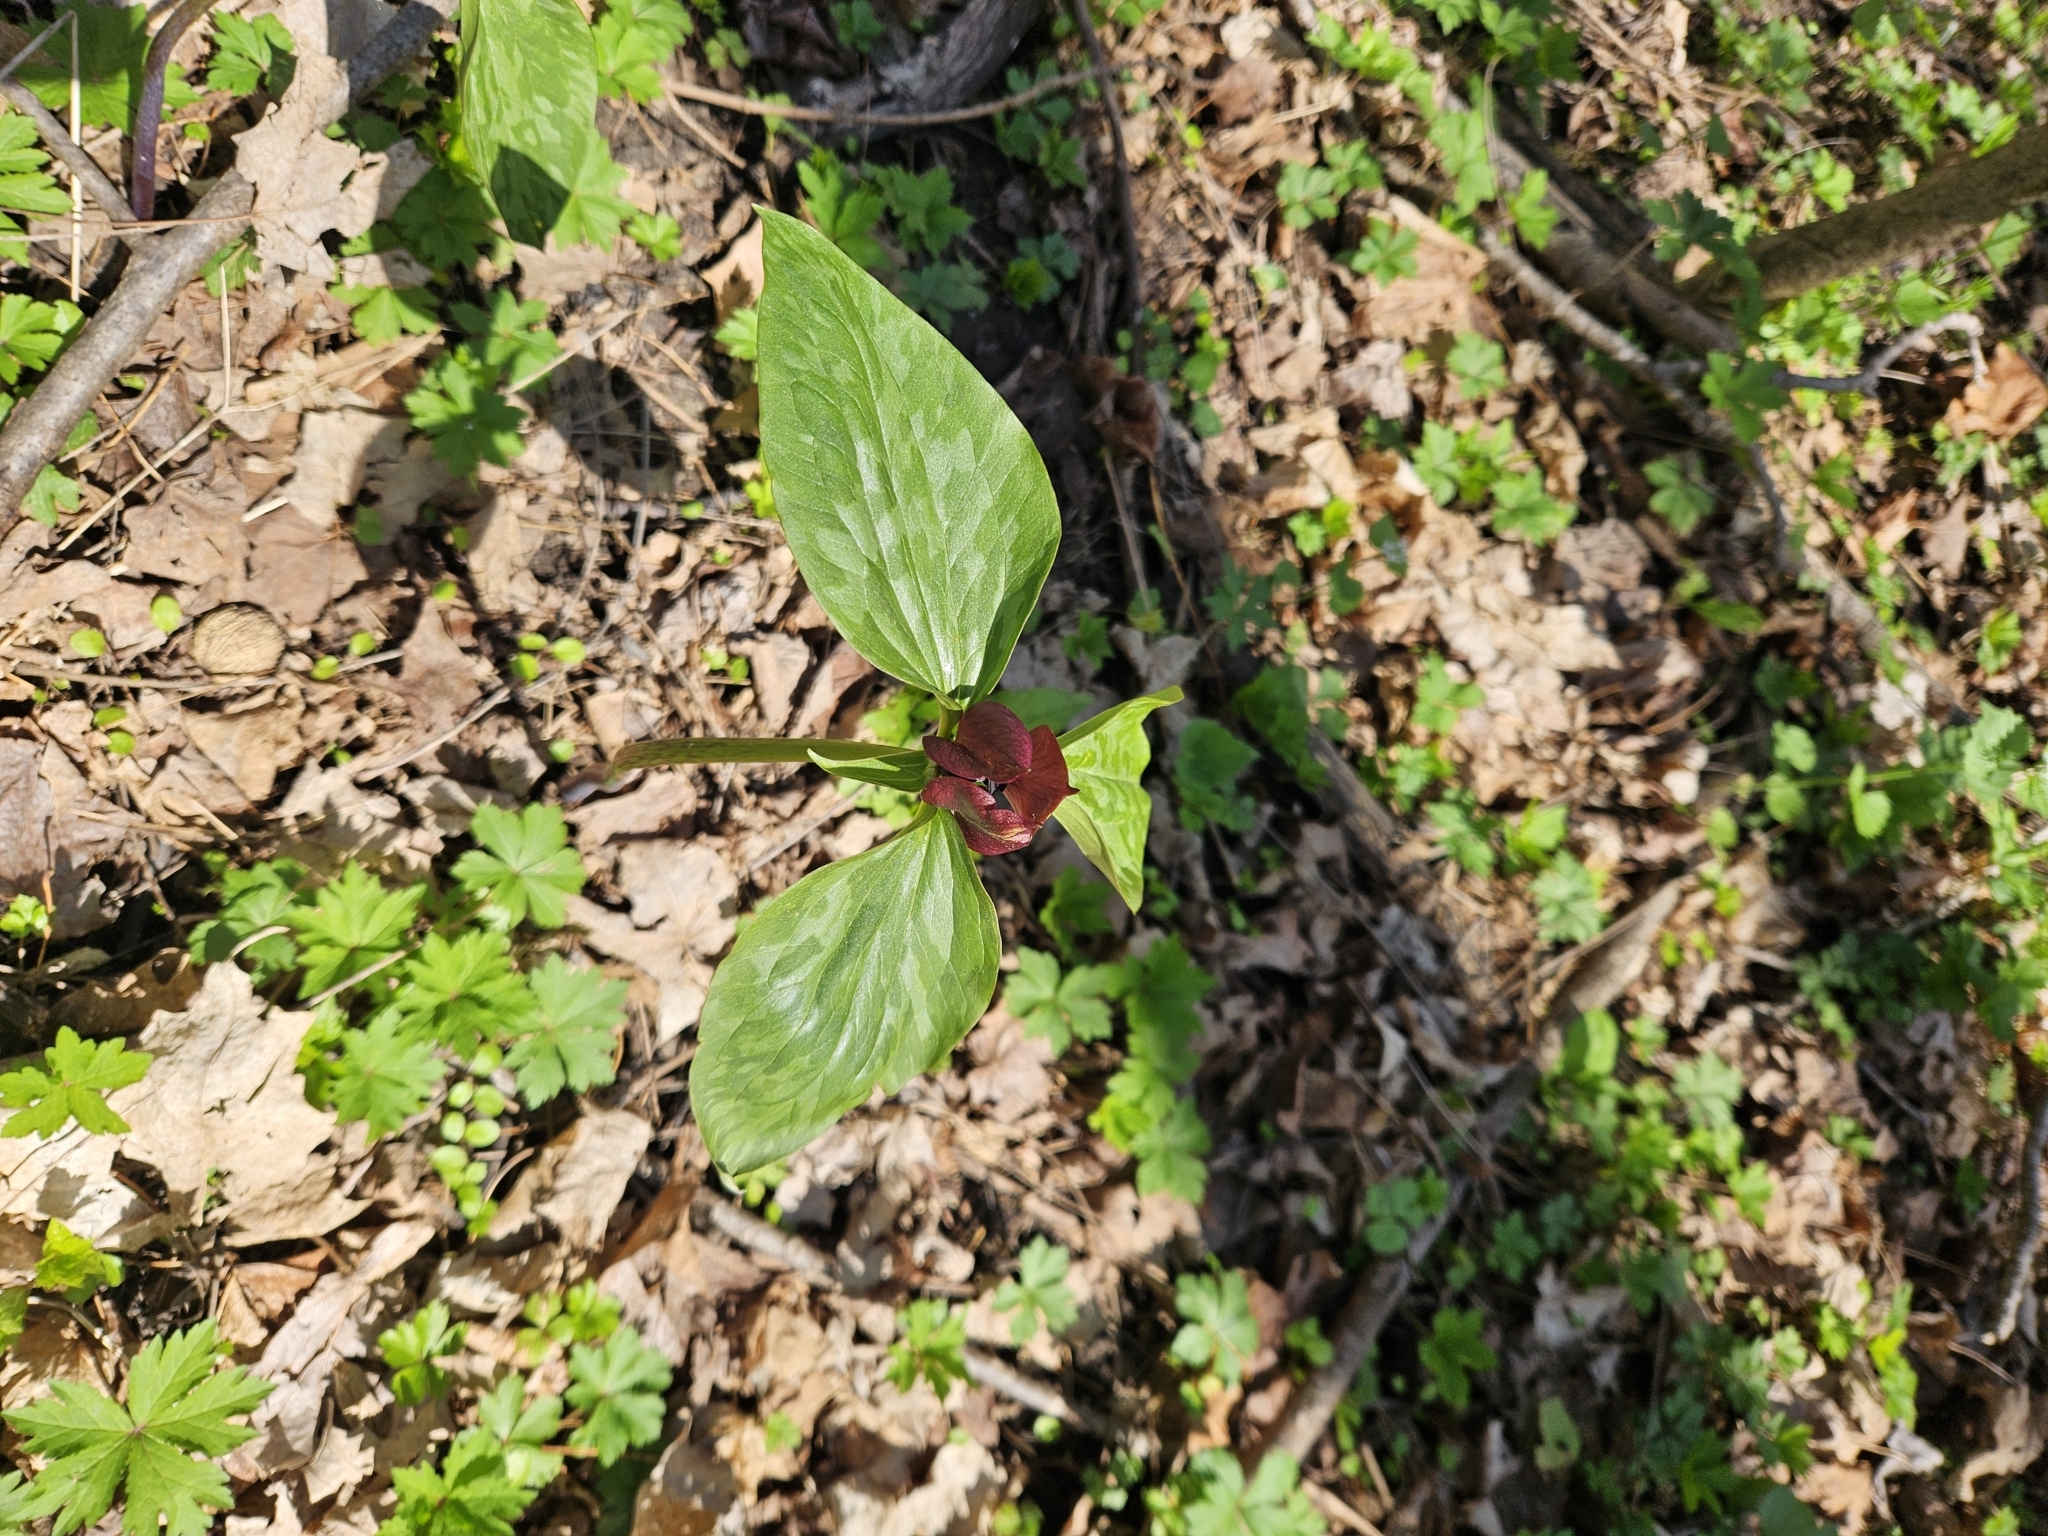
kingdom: Plantae
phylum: Tracheophyta
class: Liliopsida
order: Liliales
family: Melanthiaceae
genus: Trillium
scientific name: Trillium recurvatum
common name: Bloody butcher
